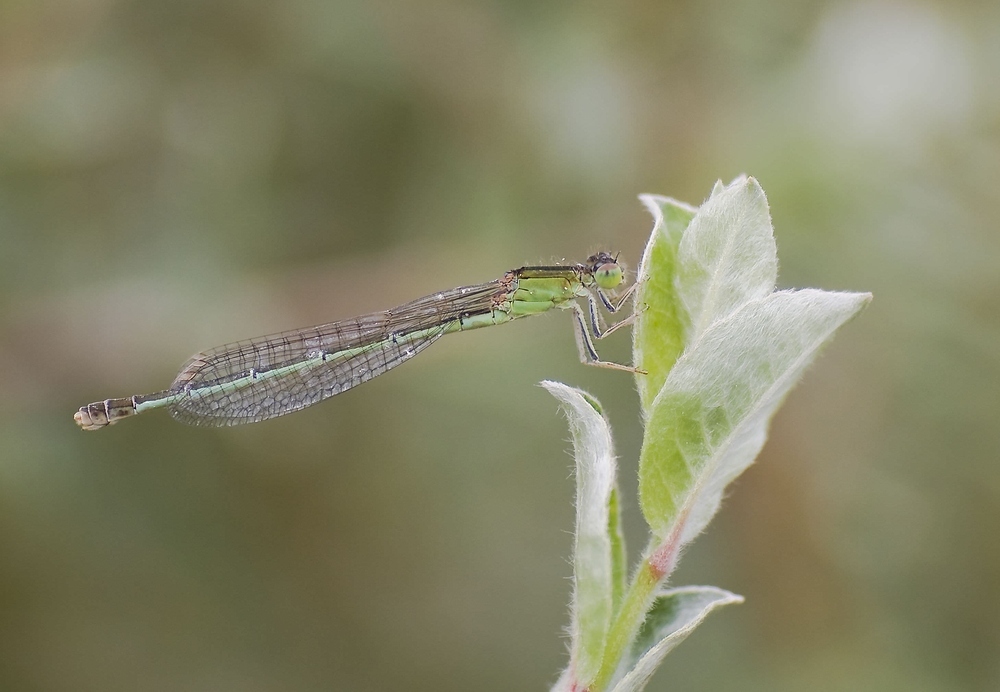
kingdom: Animalia
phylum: Arthropoda
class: Insecta
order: Odonata
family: Coenagrionidae
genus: Ischnura
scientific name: Ischnura pumilio
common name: Scarce blue-tailed damselfly
